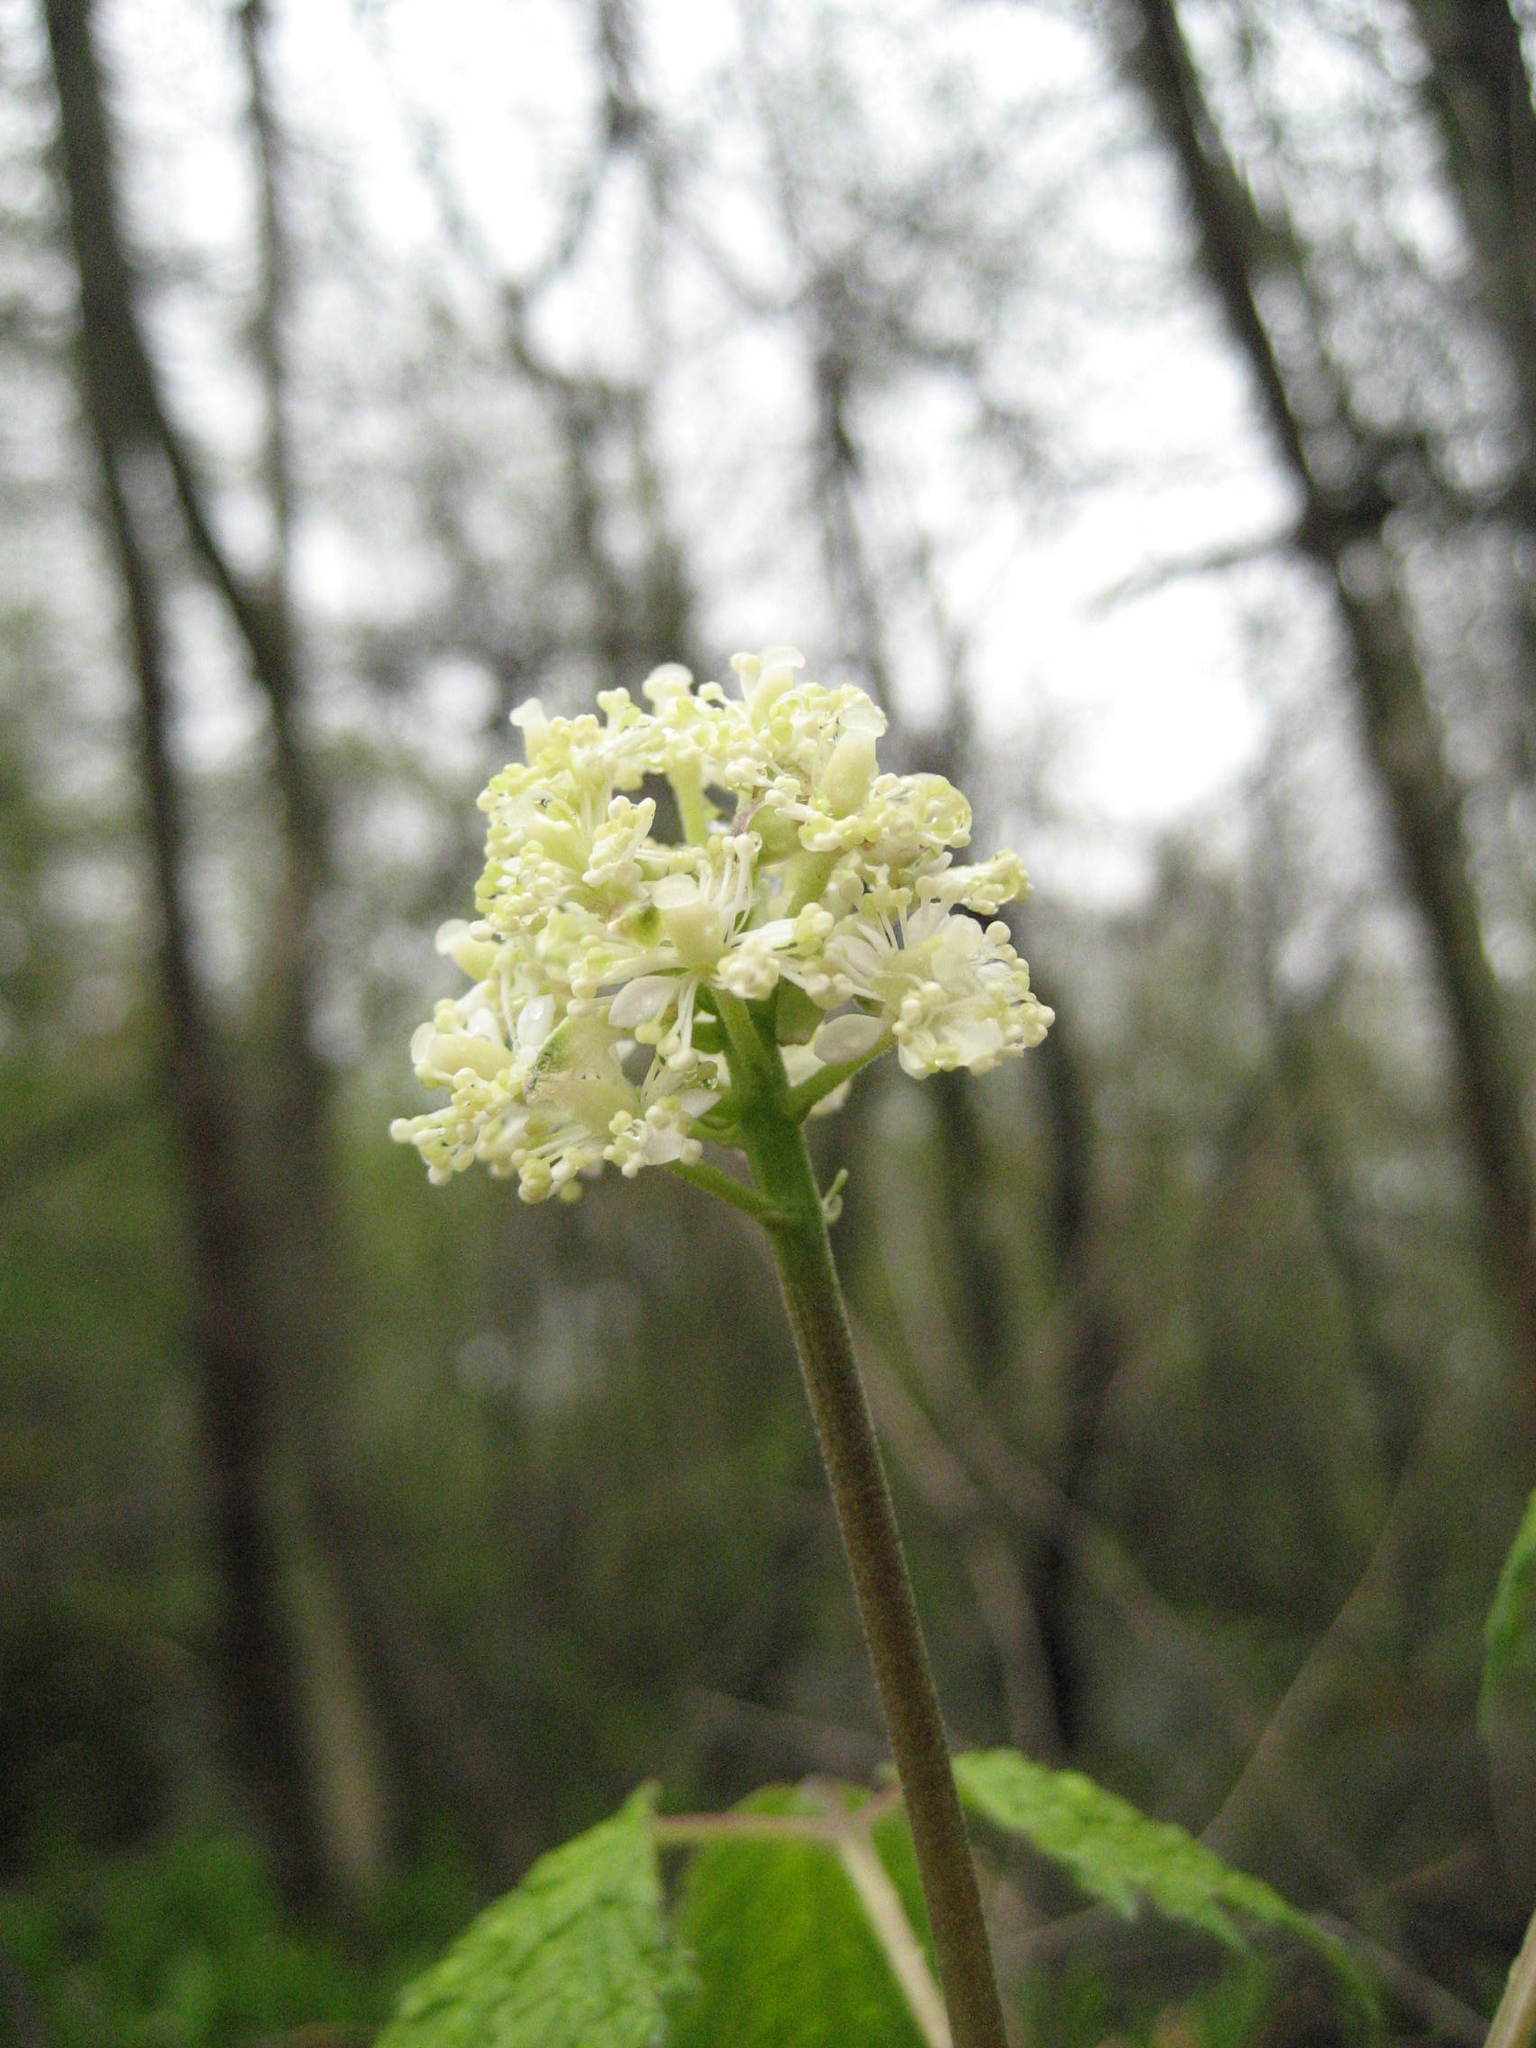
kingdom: Plantae
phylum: Tracheophyta
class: Magnoliopsida
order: Ranunculales
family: Ranunculaceae
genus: Actaea
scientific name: Actaea rubra
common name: Red baneberry
